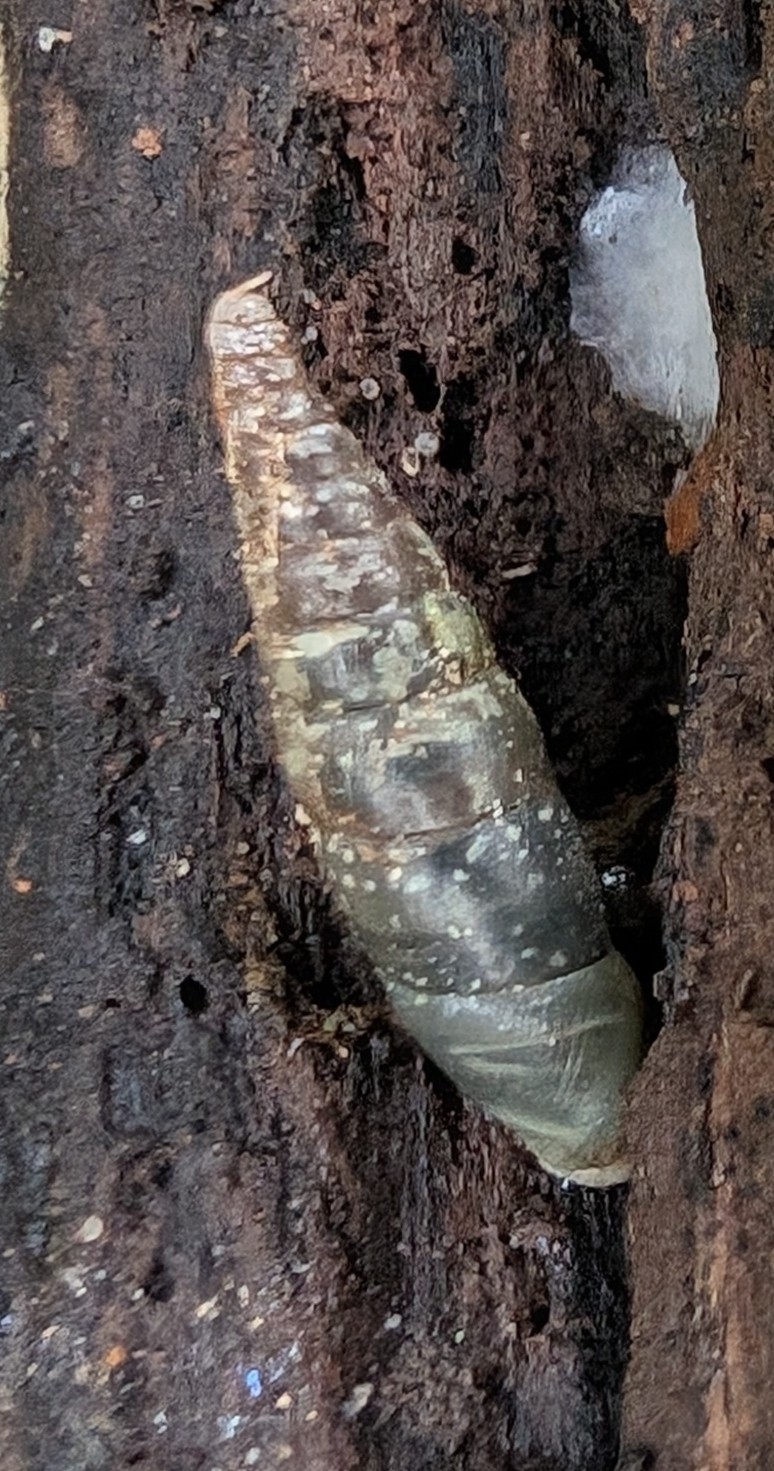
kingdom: Animalia
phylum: Mollusca
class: Gastropoda
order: Stylommatophora
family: Clausiliidae
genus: Cochlodina
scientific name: Cochlodina laminata
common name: Plaited door snail
